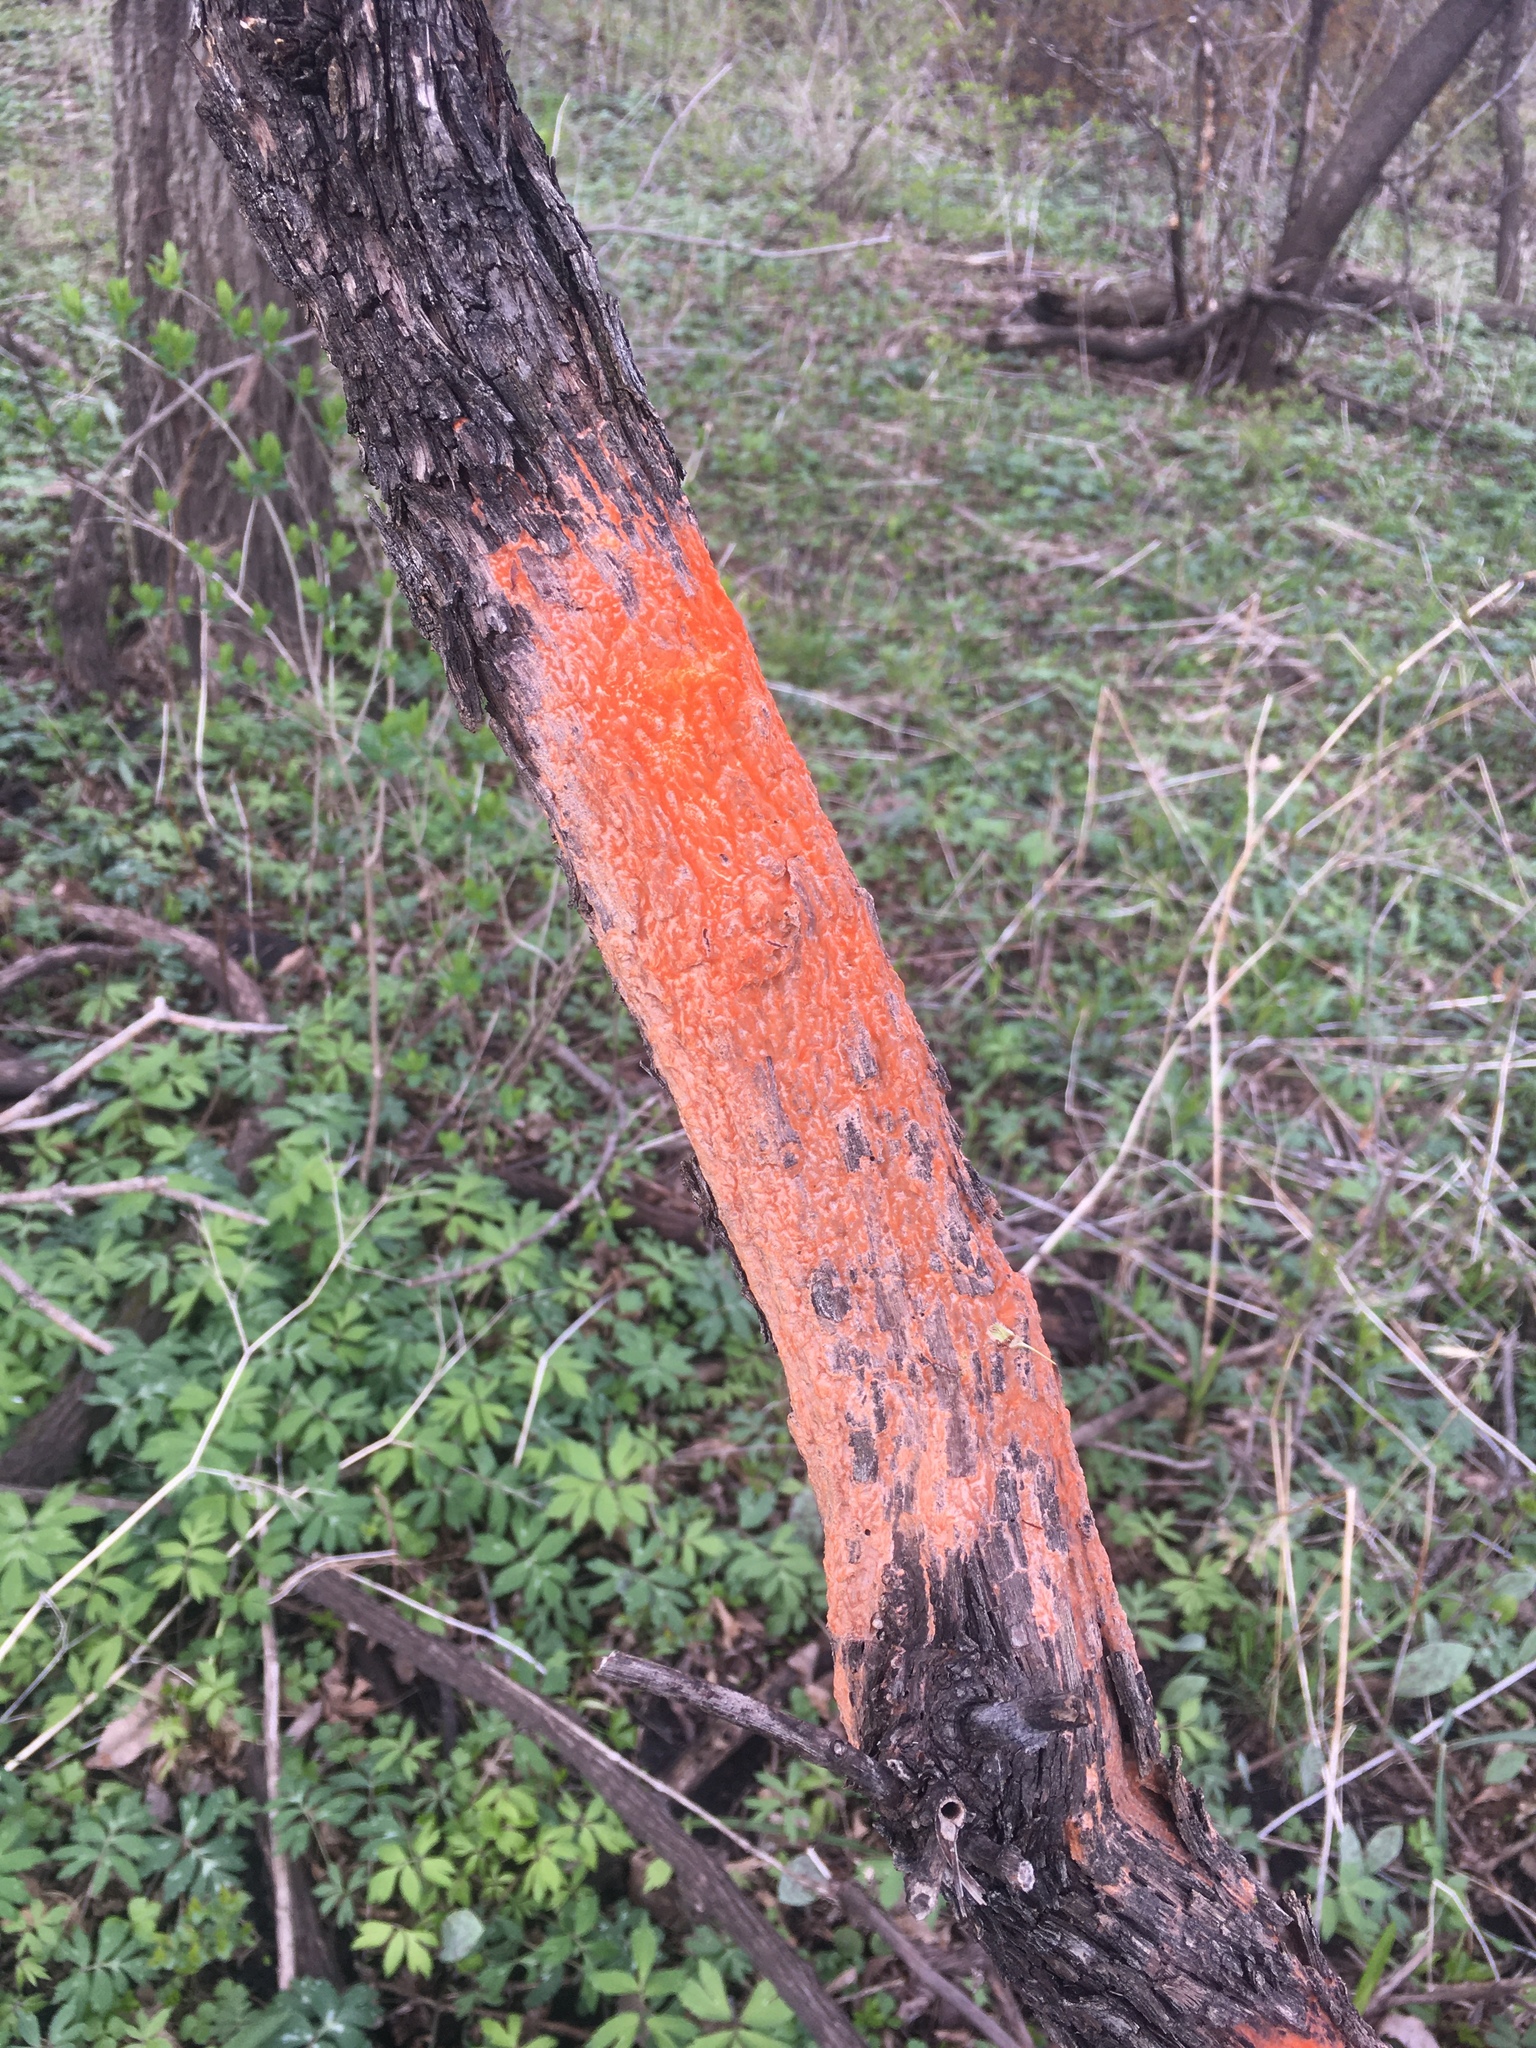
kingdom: Fungi
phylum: Ascomycota
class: Sordariomycetes
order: Hypocreales
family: Nectriaceae
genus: Fusicolla
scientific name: Fusicolla merismoides
